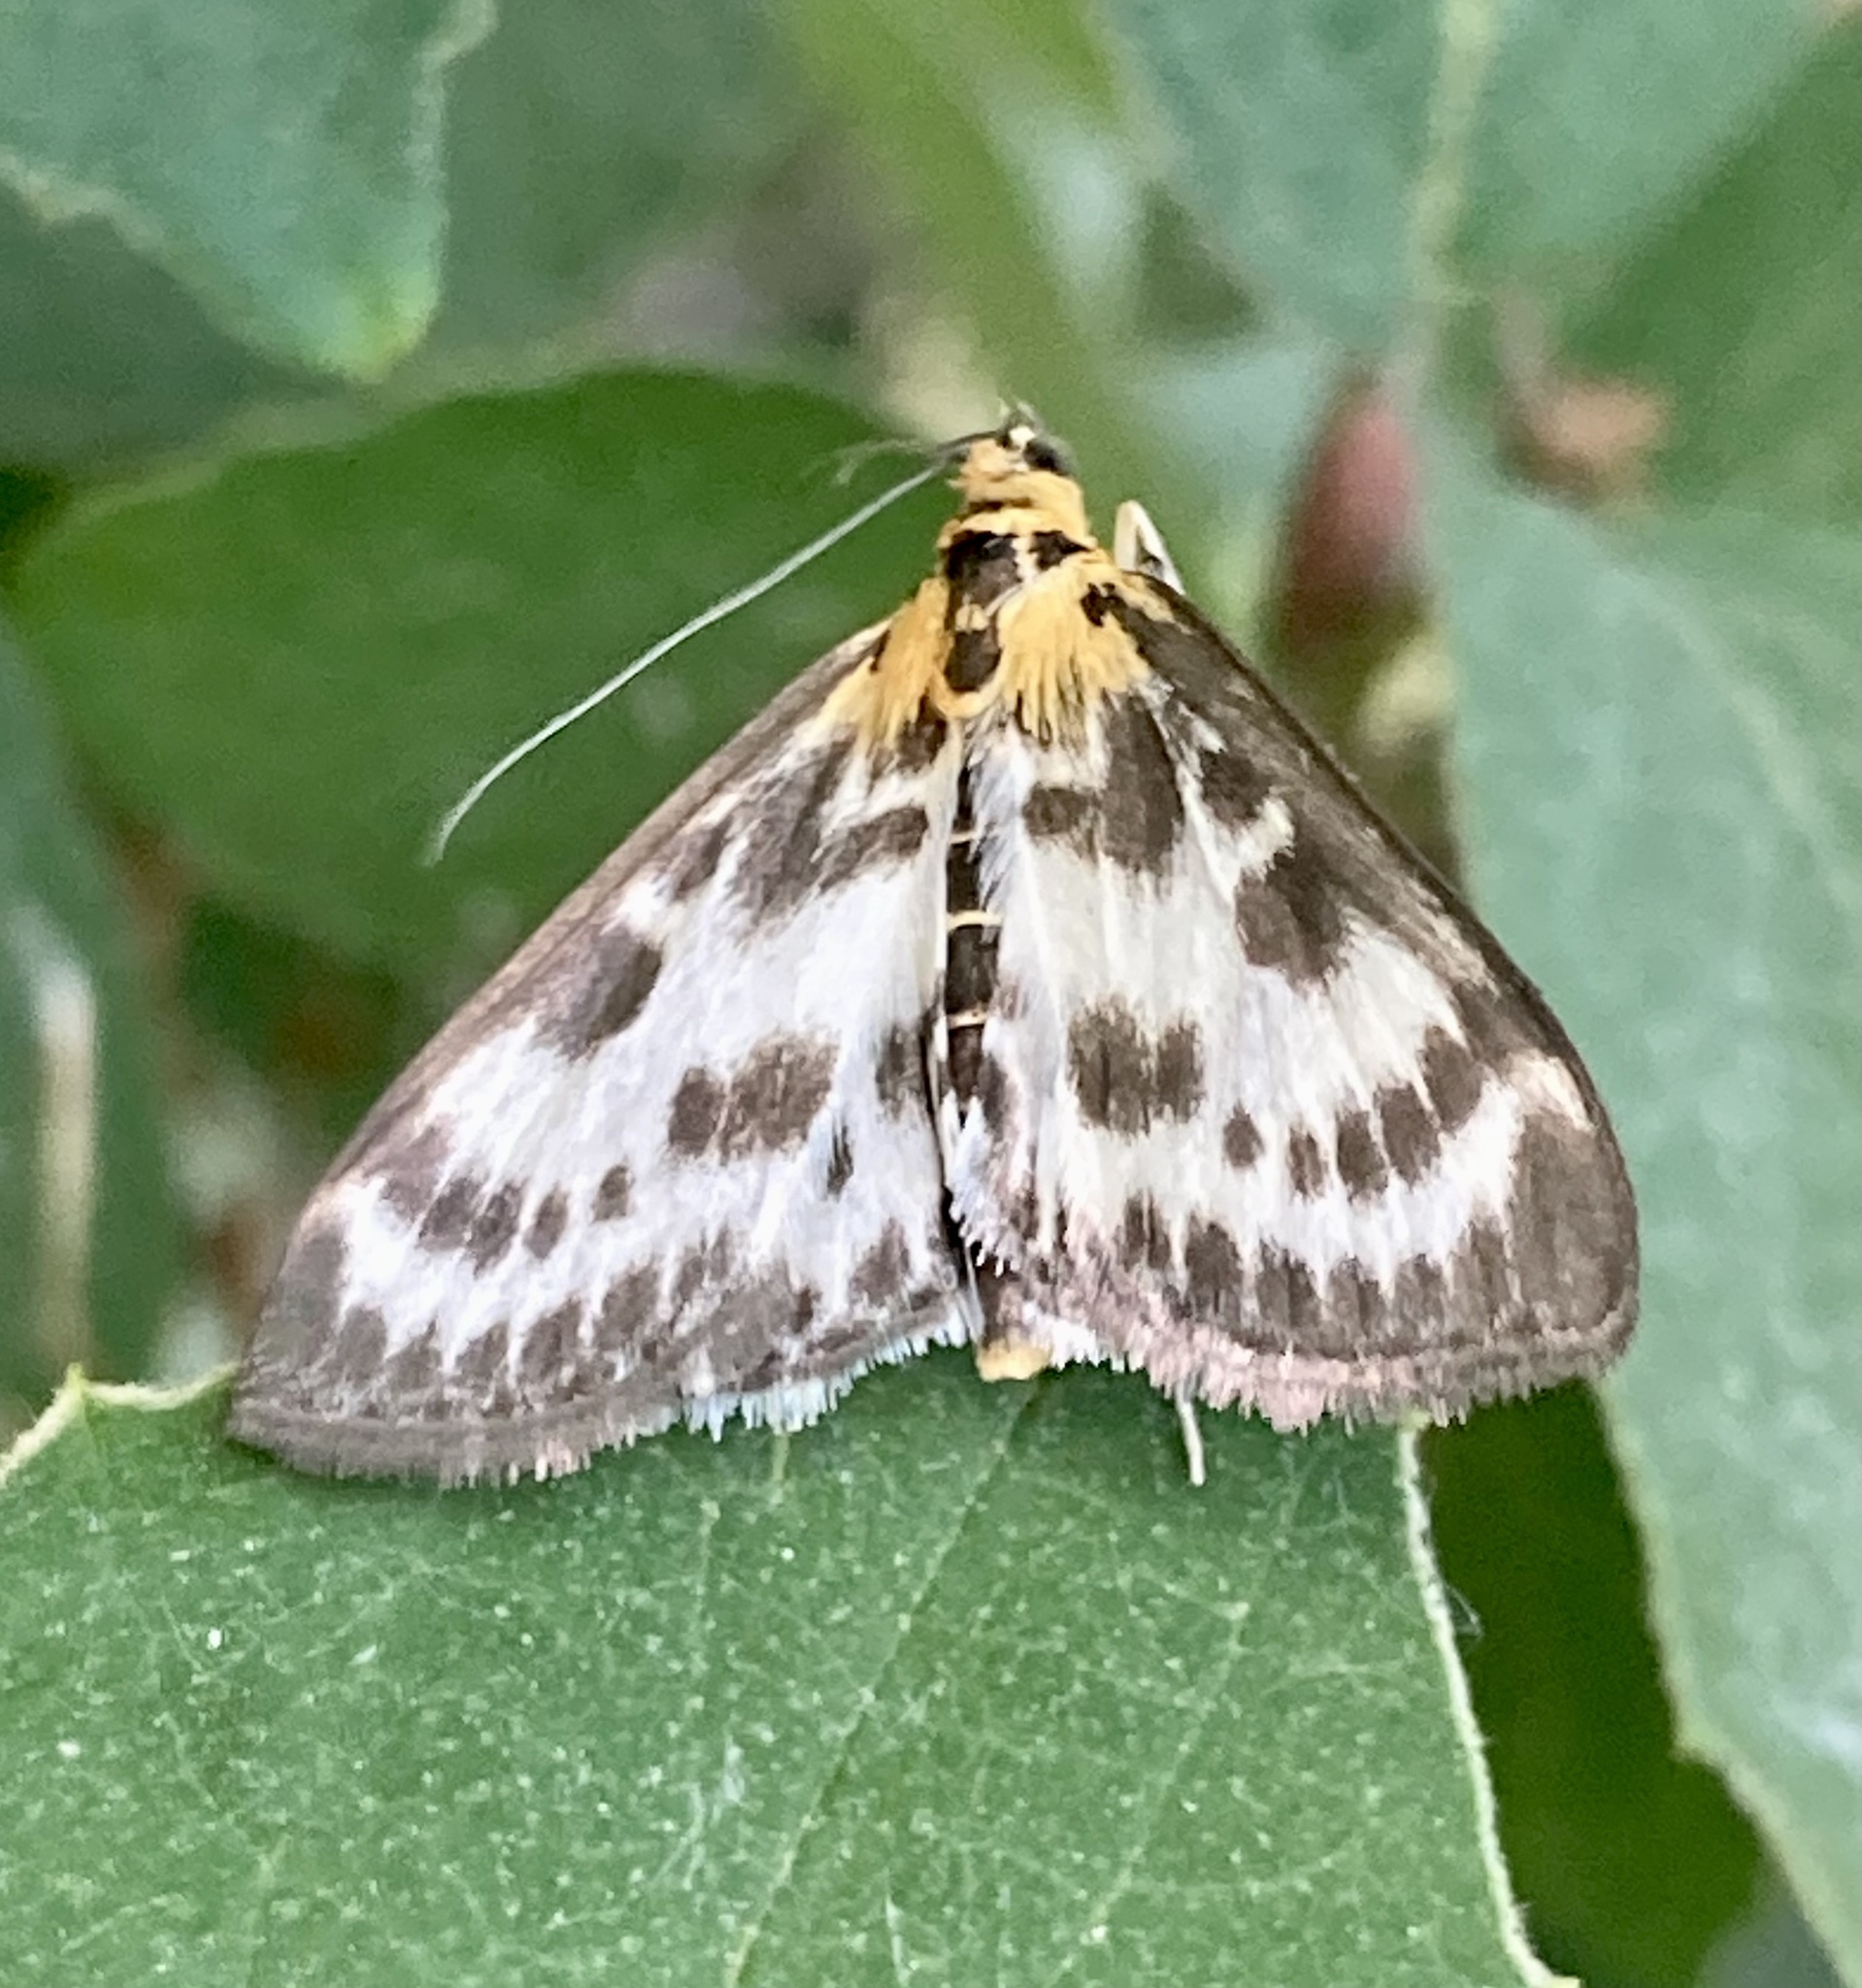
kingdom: Animalia
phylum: Arthropoda
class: Insecta
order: Lepidoptera
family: Crambidae
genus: Anania
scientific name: Anania hortulata
